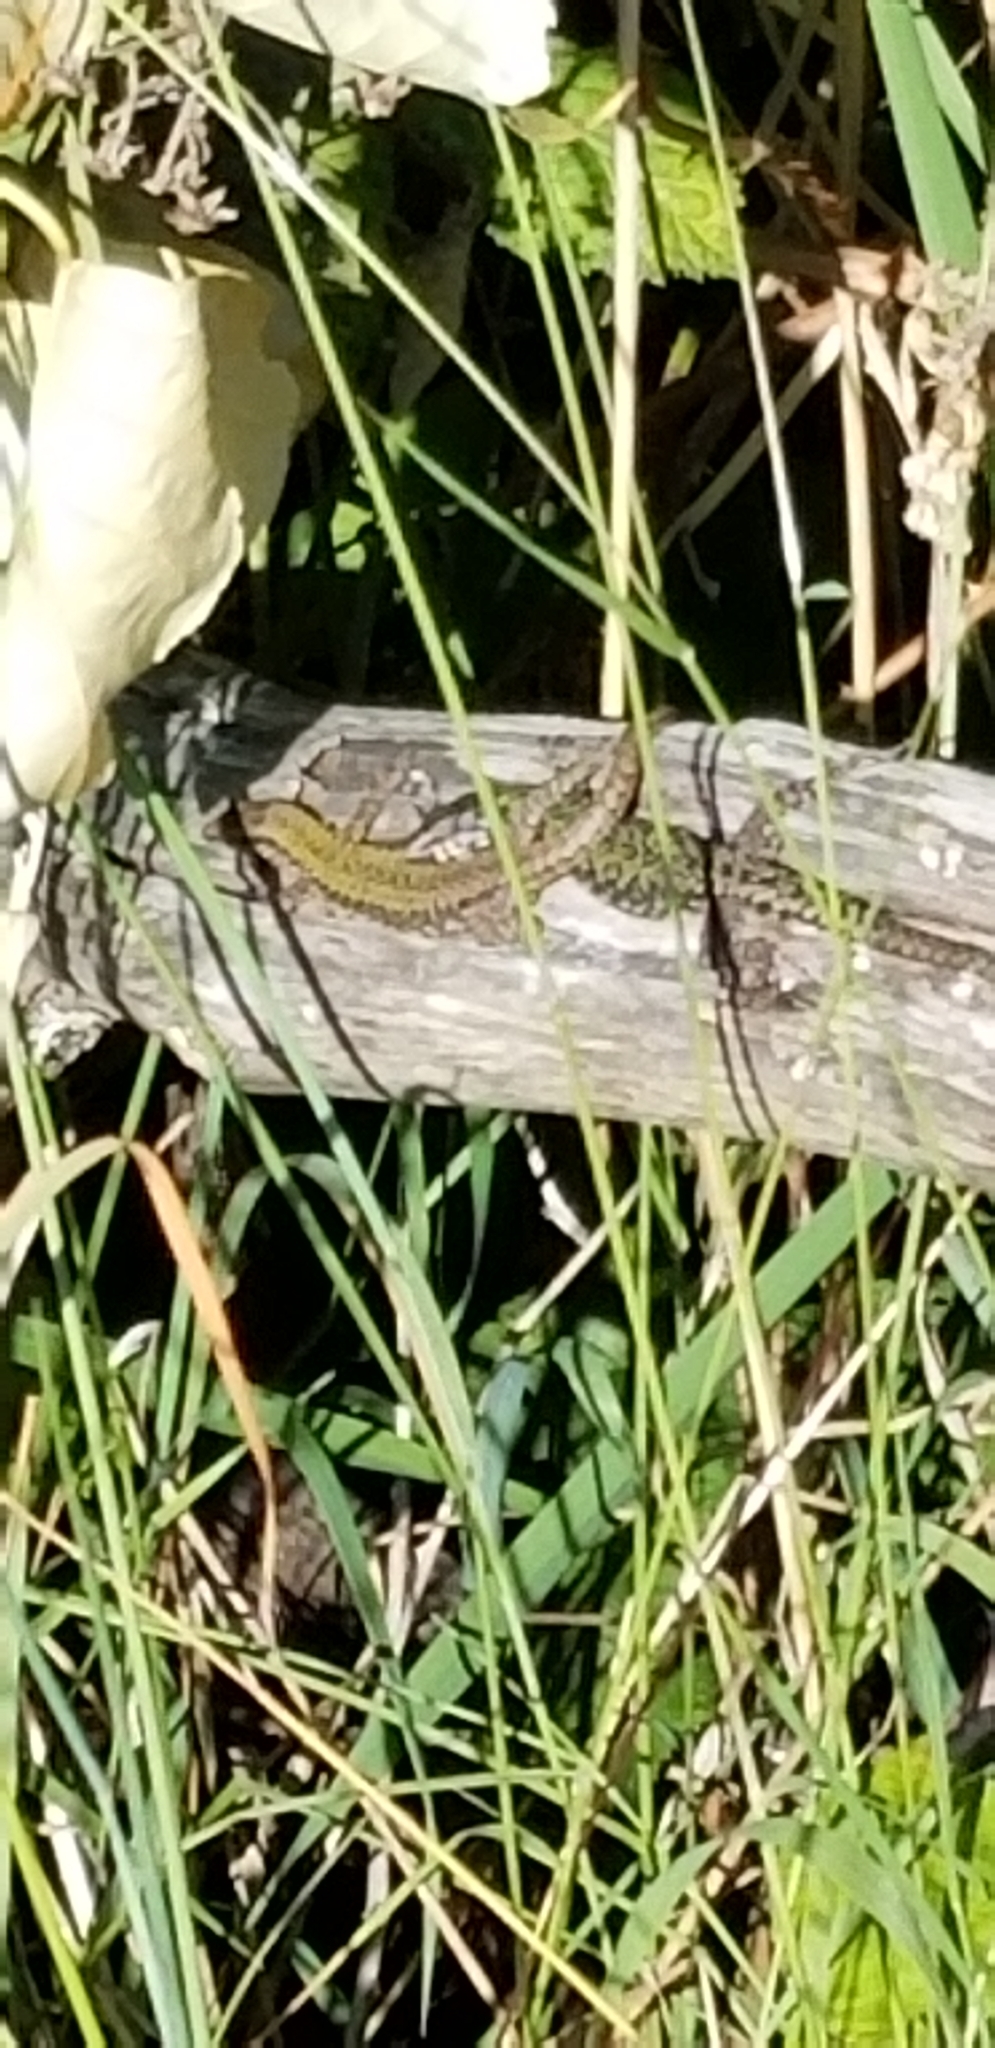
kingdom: Animalia
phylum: Chordata
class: Squamata
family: Lacertidae
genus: Podarcis
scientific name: Podarcis muralis
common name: Common wall lizard
